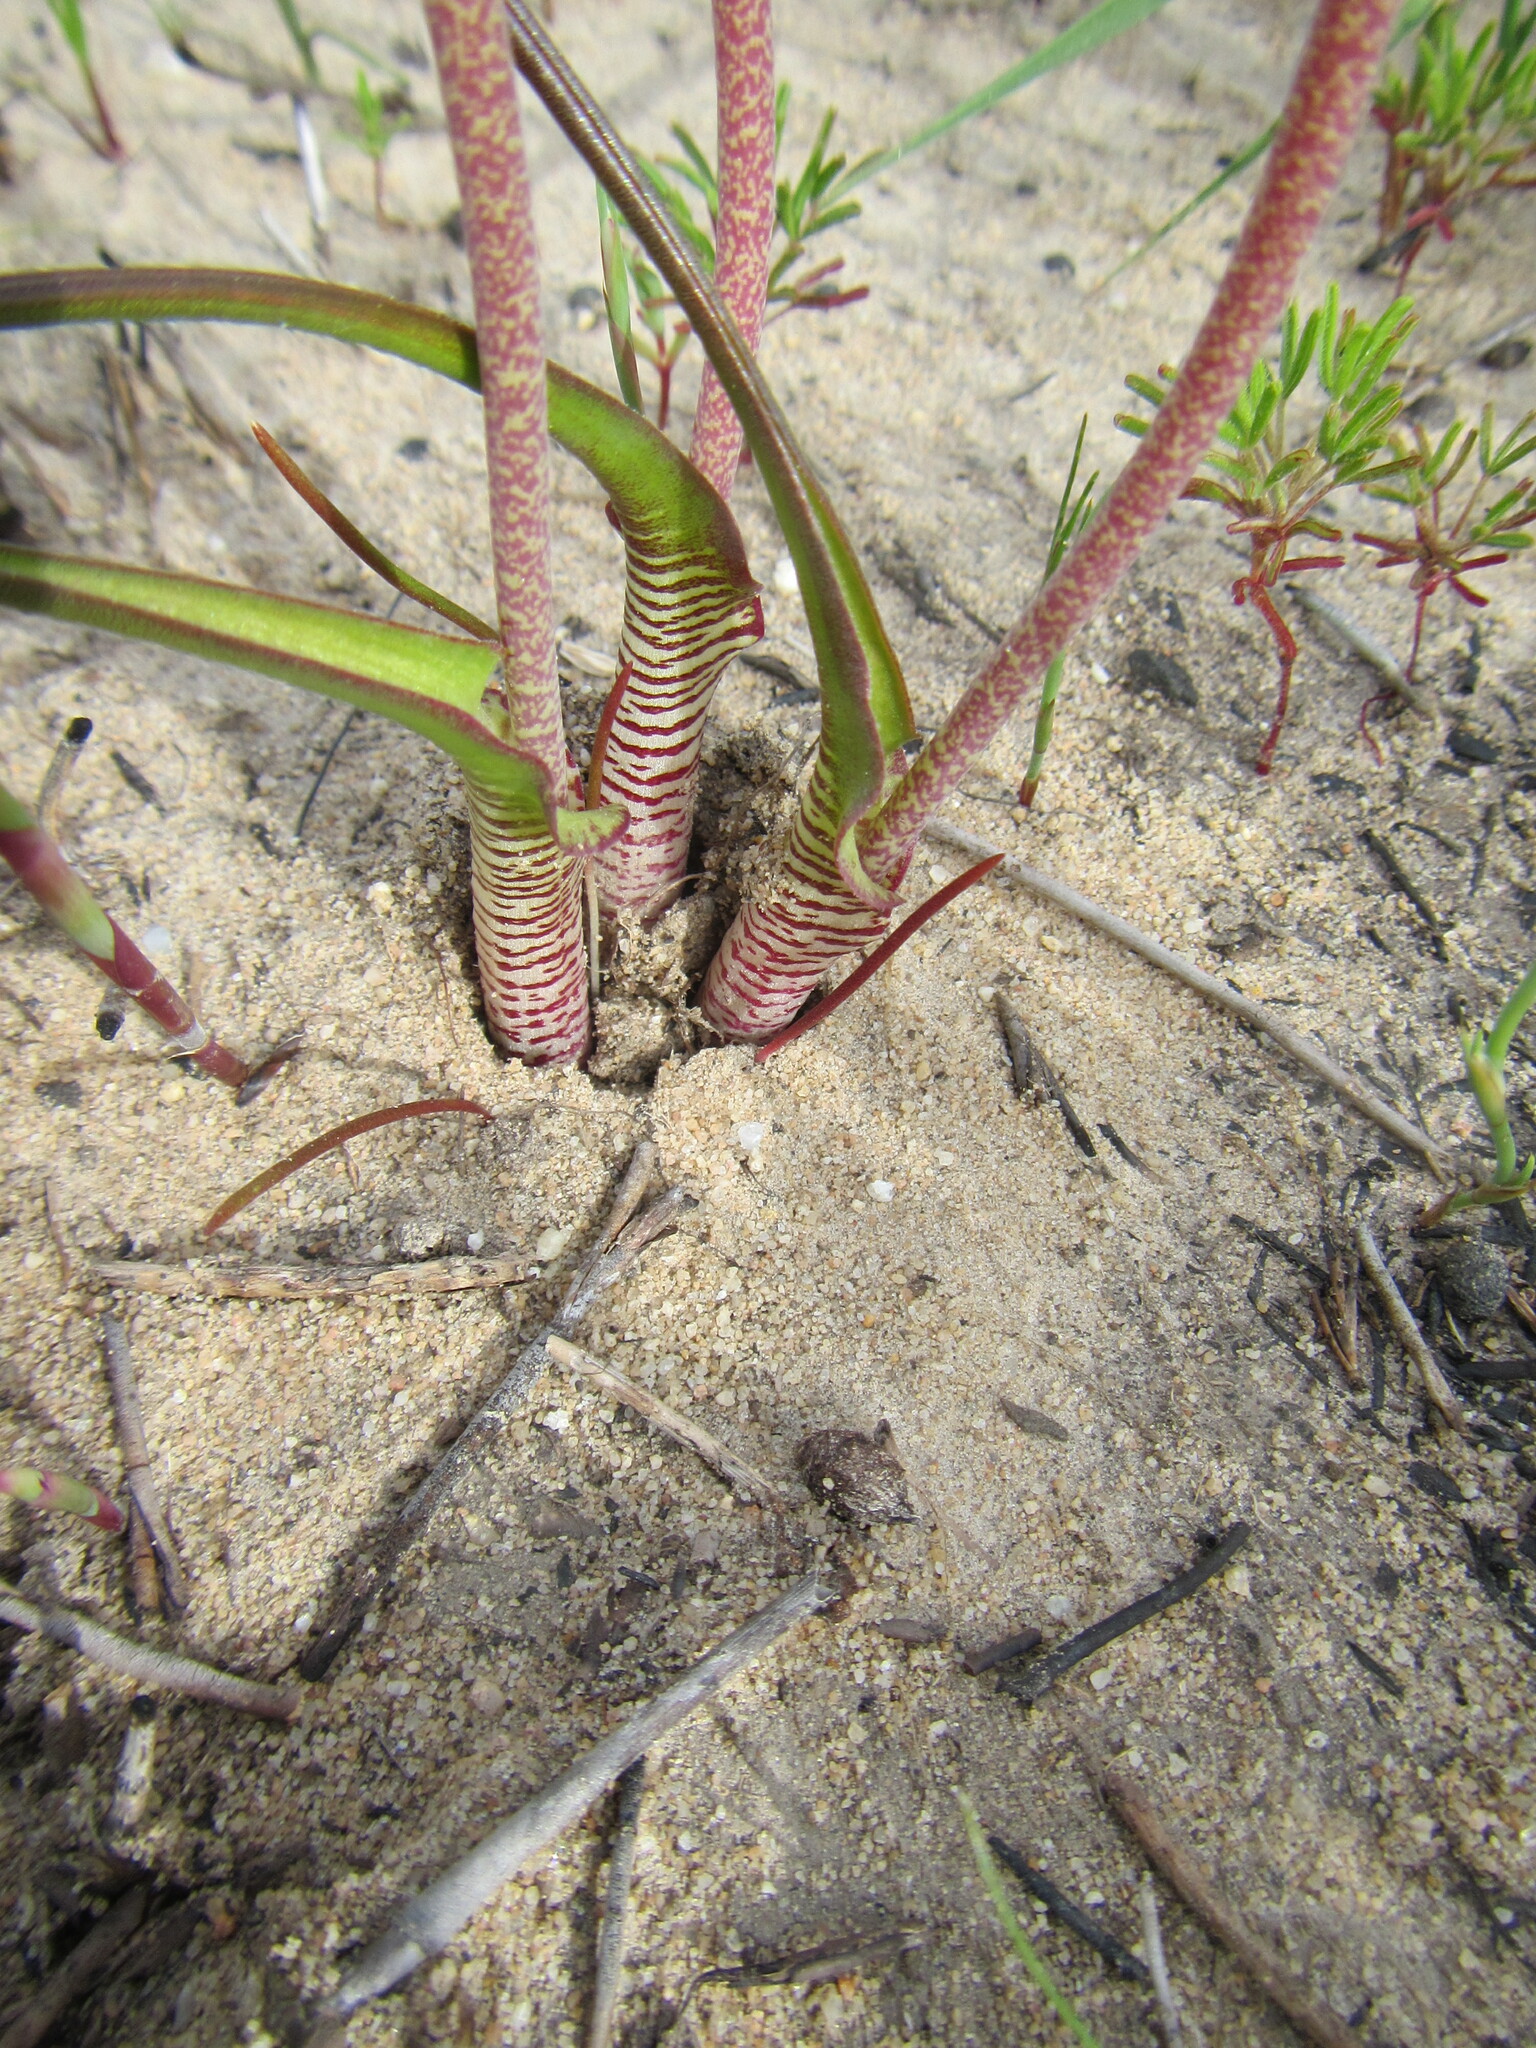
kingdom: Plantae
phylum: Tracheophyta
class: Liliopsida
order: Asparagales
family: Asparagaceae
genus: Lachenalia
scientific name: Lachenalia unifolia
